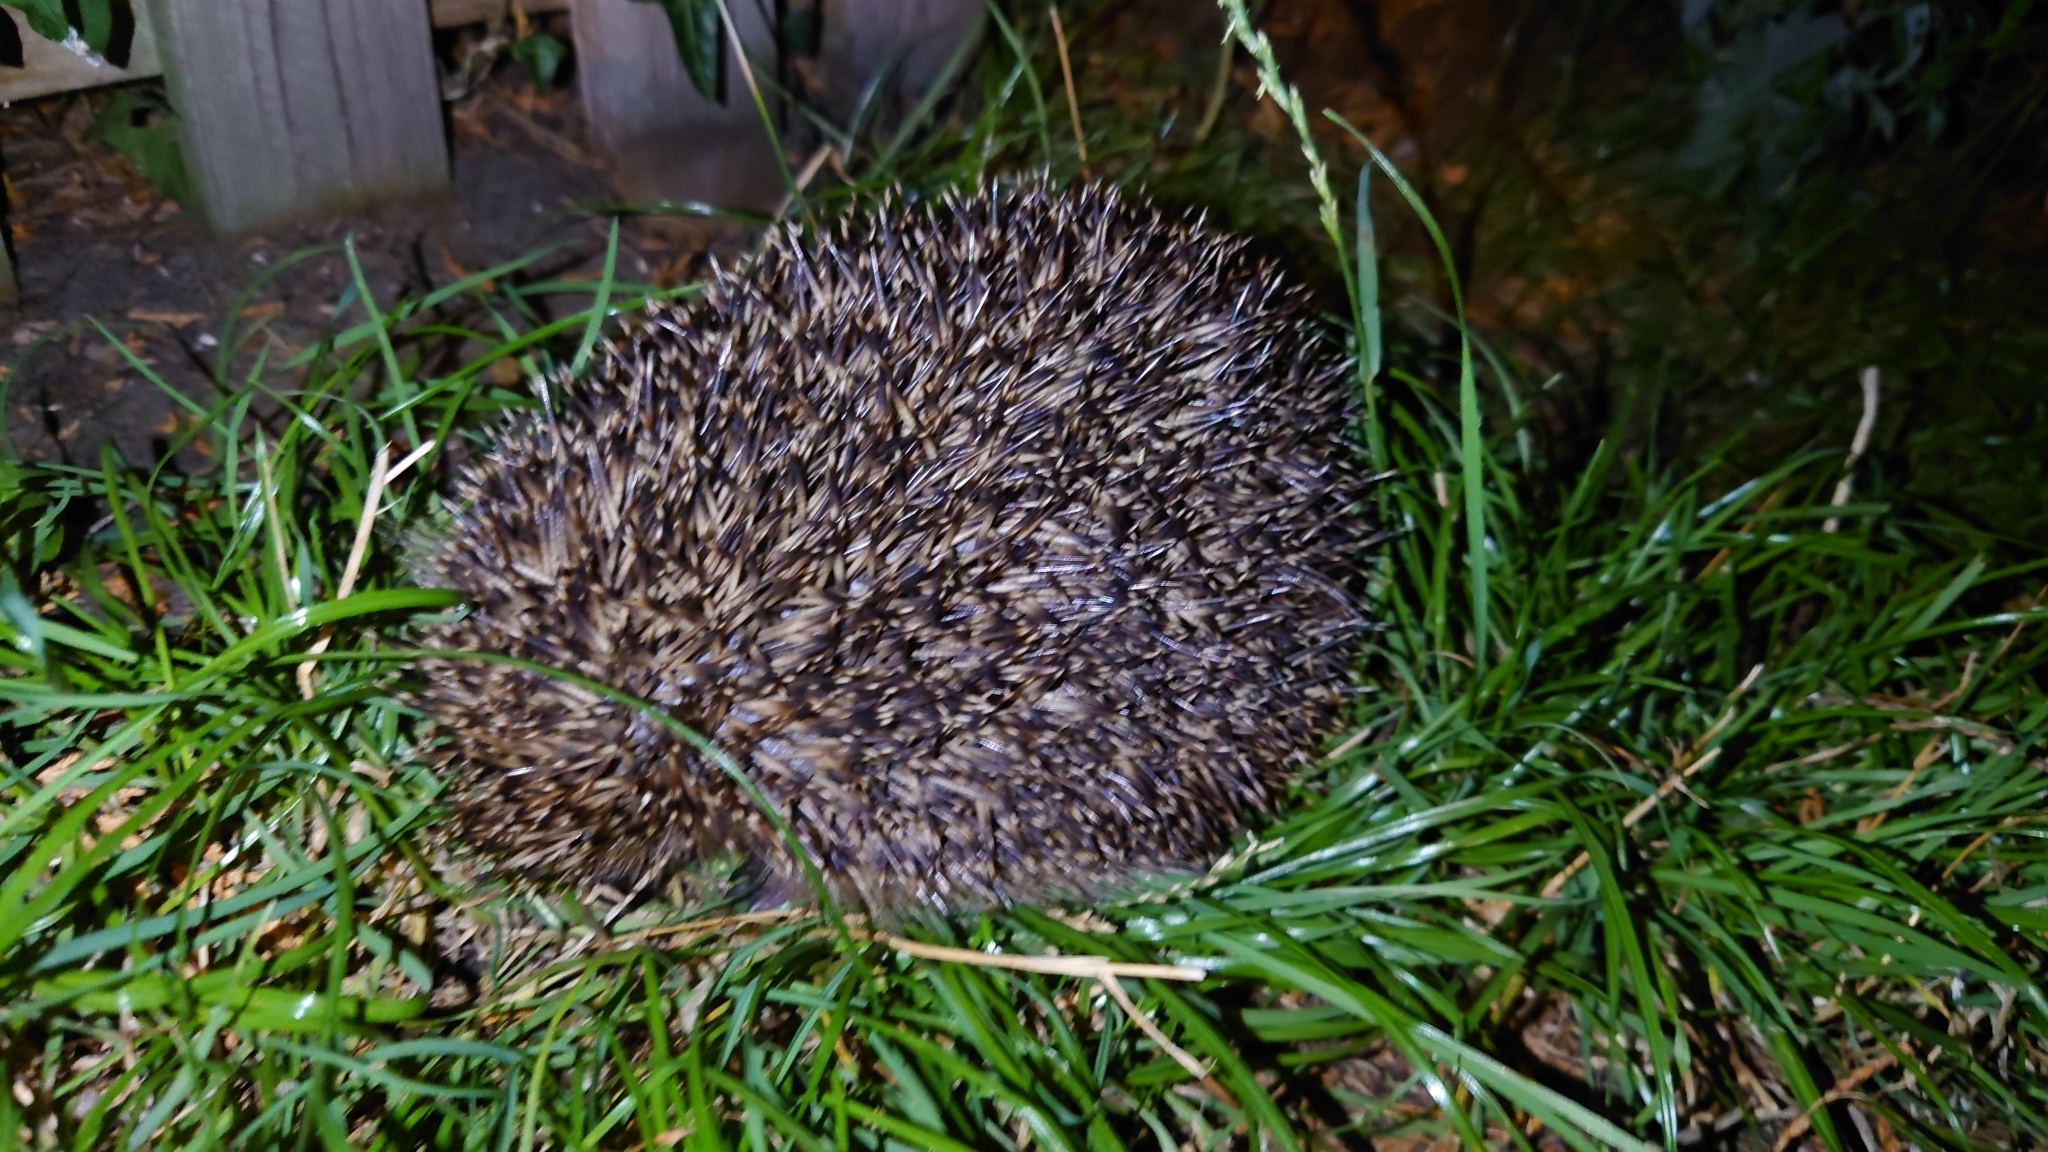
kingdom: Animalia
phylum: Chordata
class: Mammalia
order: Erinaceomorpha
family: Erinaceidae
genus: Erinaceus
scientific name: Erinaceus europaeus
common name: West european hedgehog
